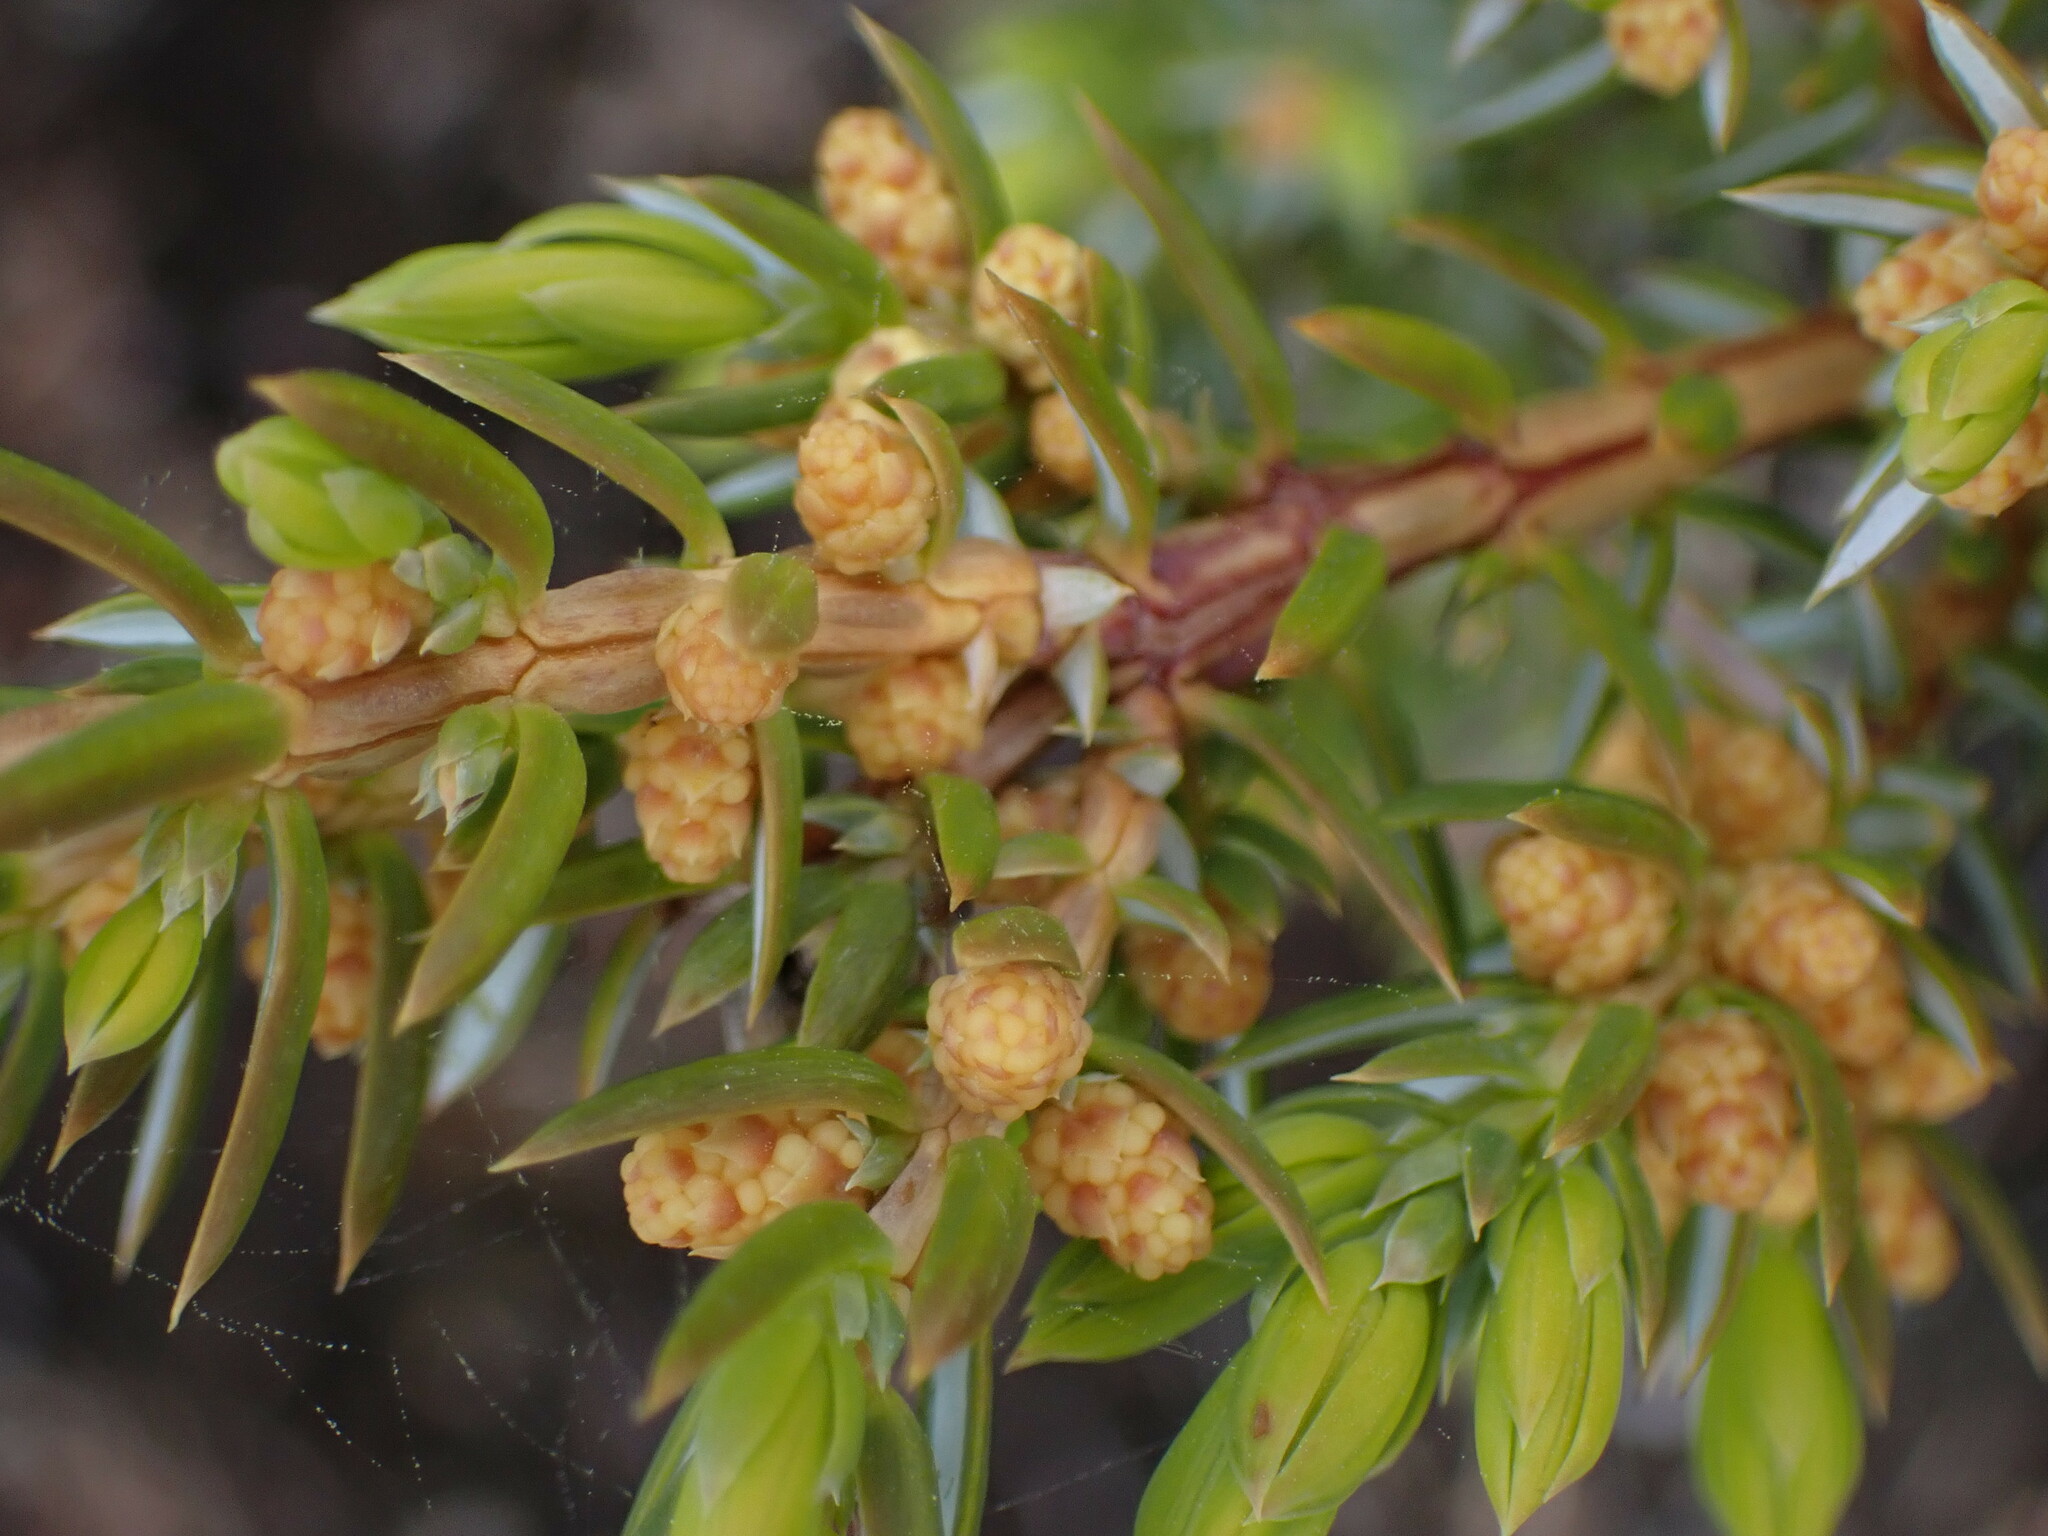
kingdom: Plantae
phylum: Tracheophyta
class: Pinopsida
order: Pinales
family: Cupressaceae
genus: Juniperus
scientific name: Juniperus communis
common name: Common juniper
